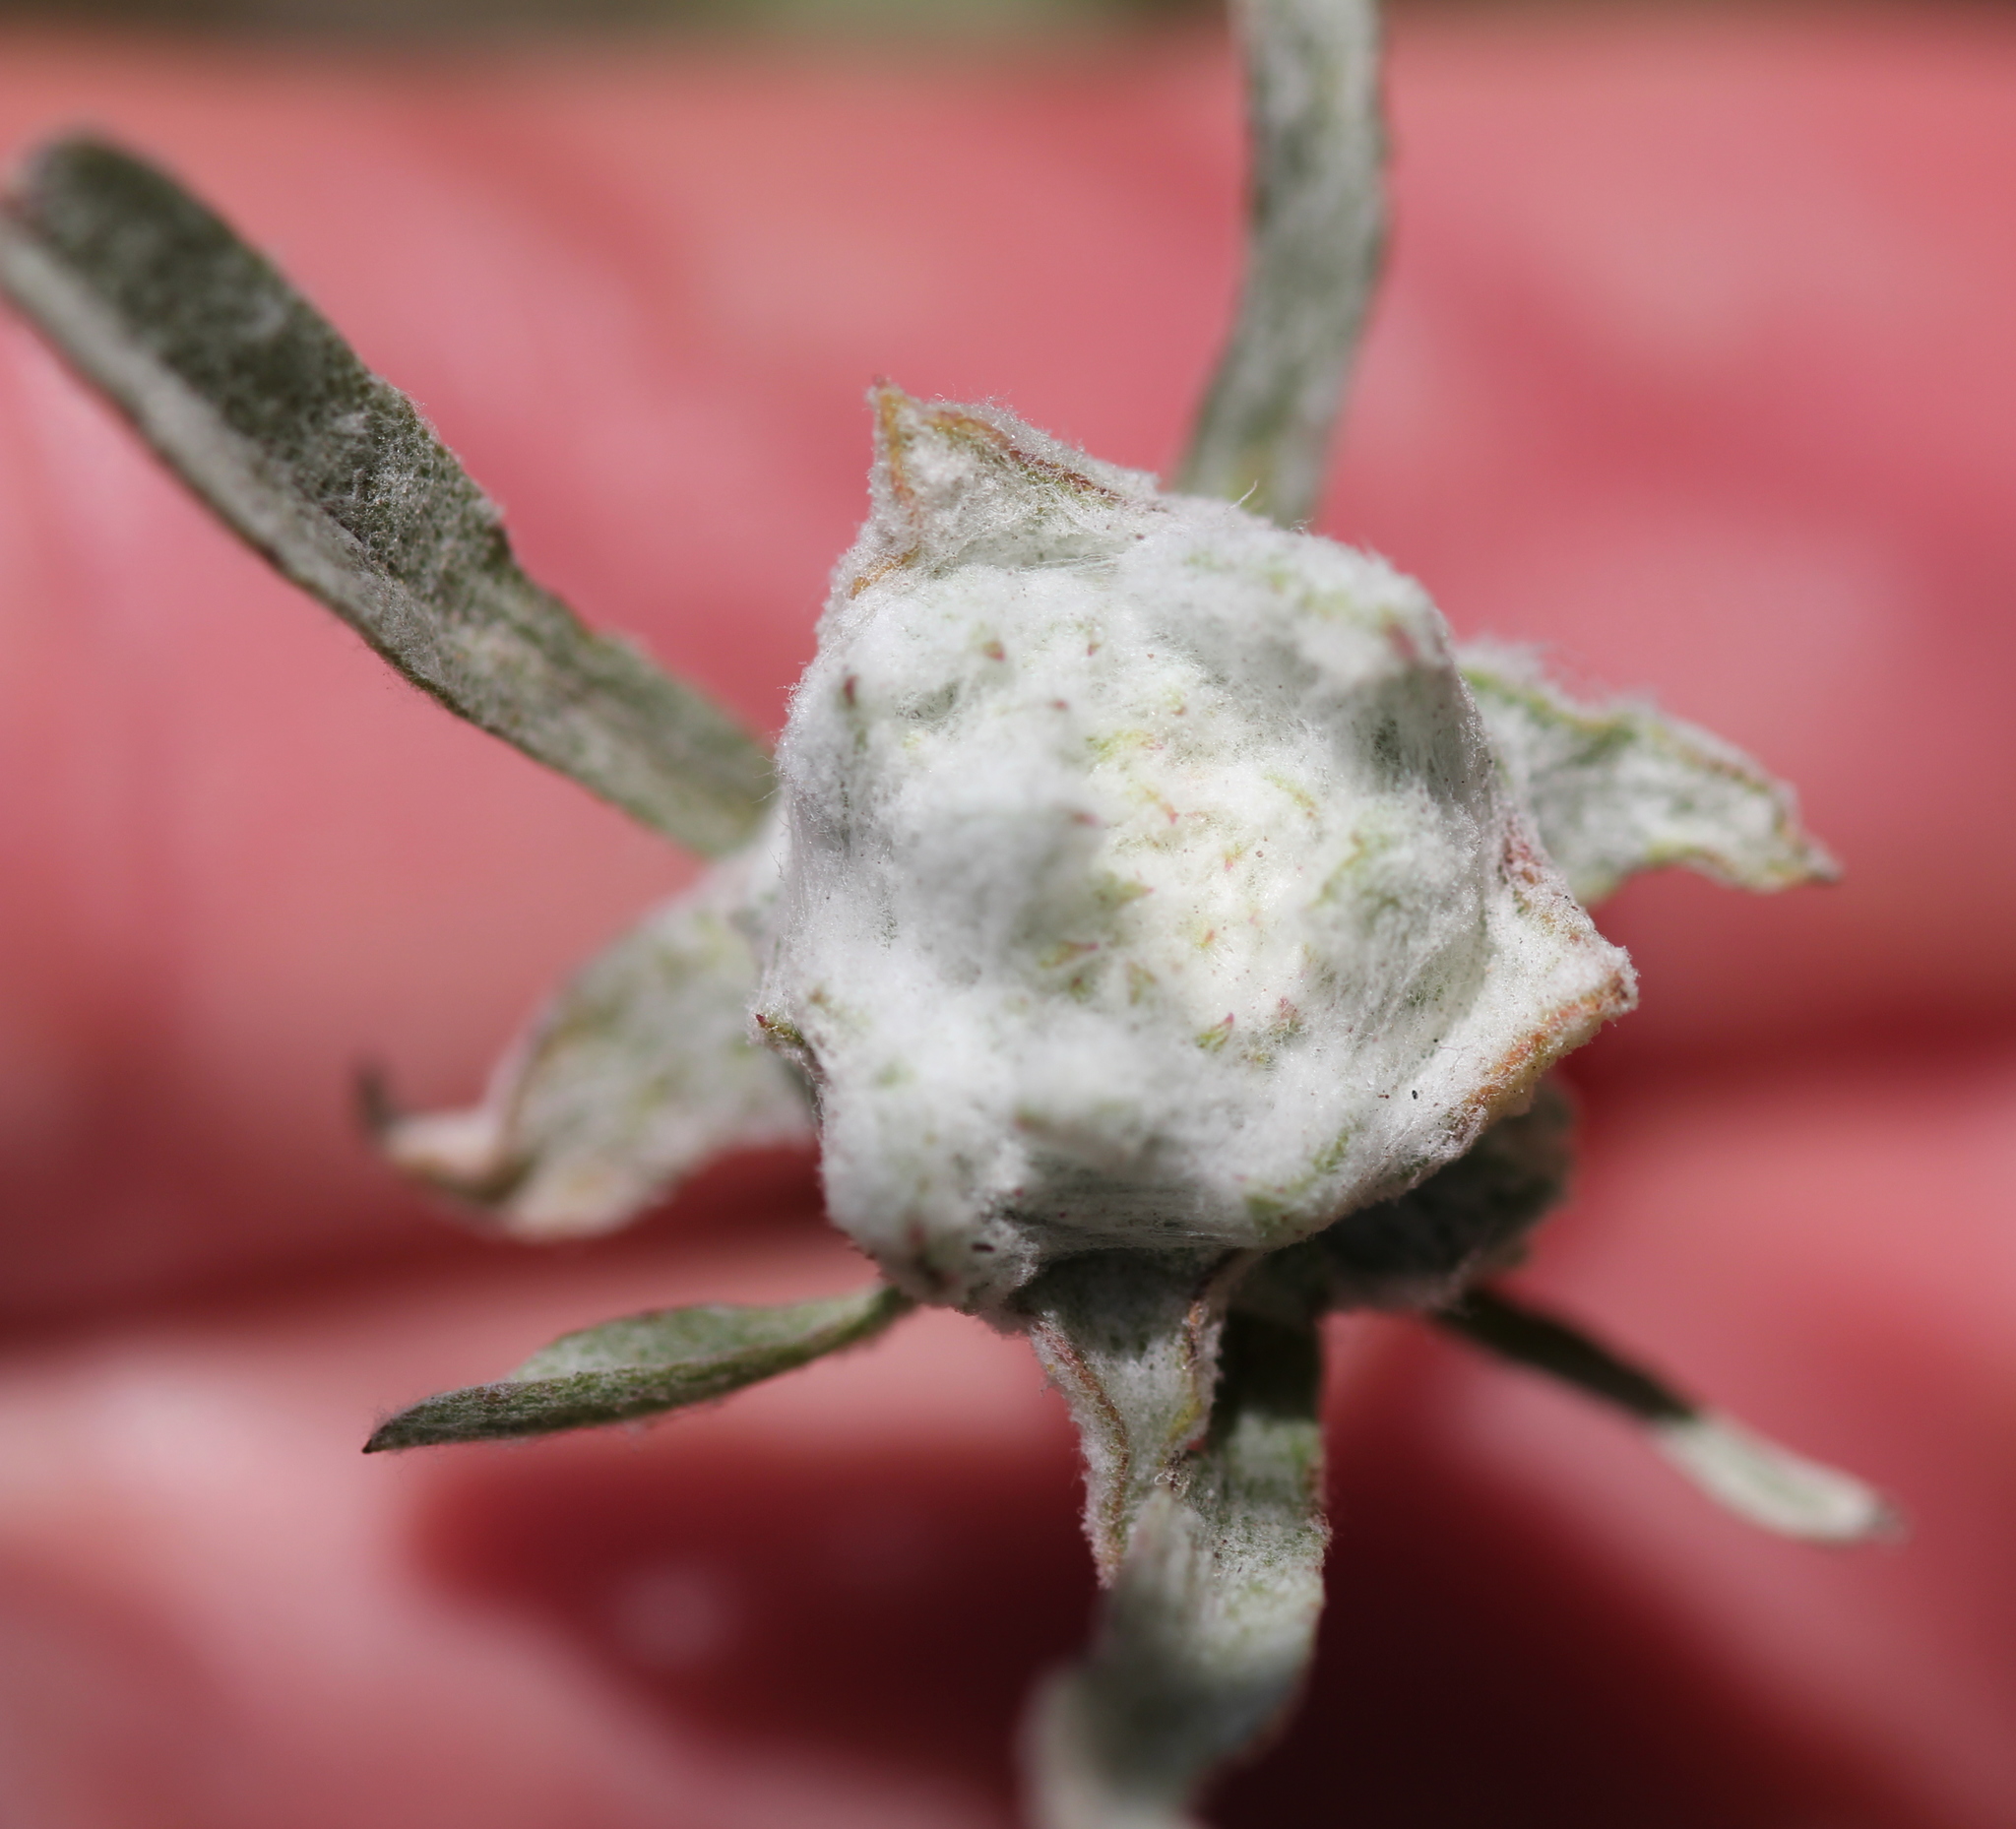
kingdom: Plantae
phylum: Tracheophyta
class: Magnoliopsida
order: Asterales
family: Asteraceae
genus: Logfia
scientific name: Logfia californica
